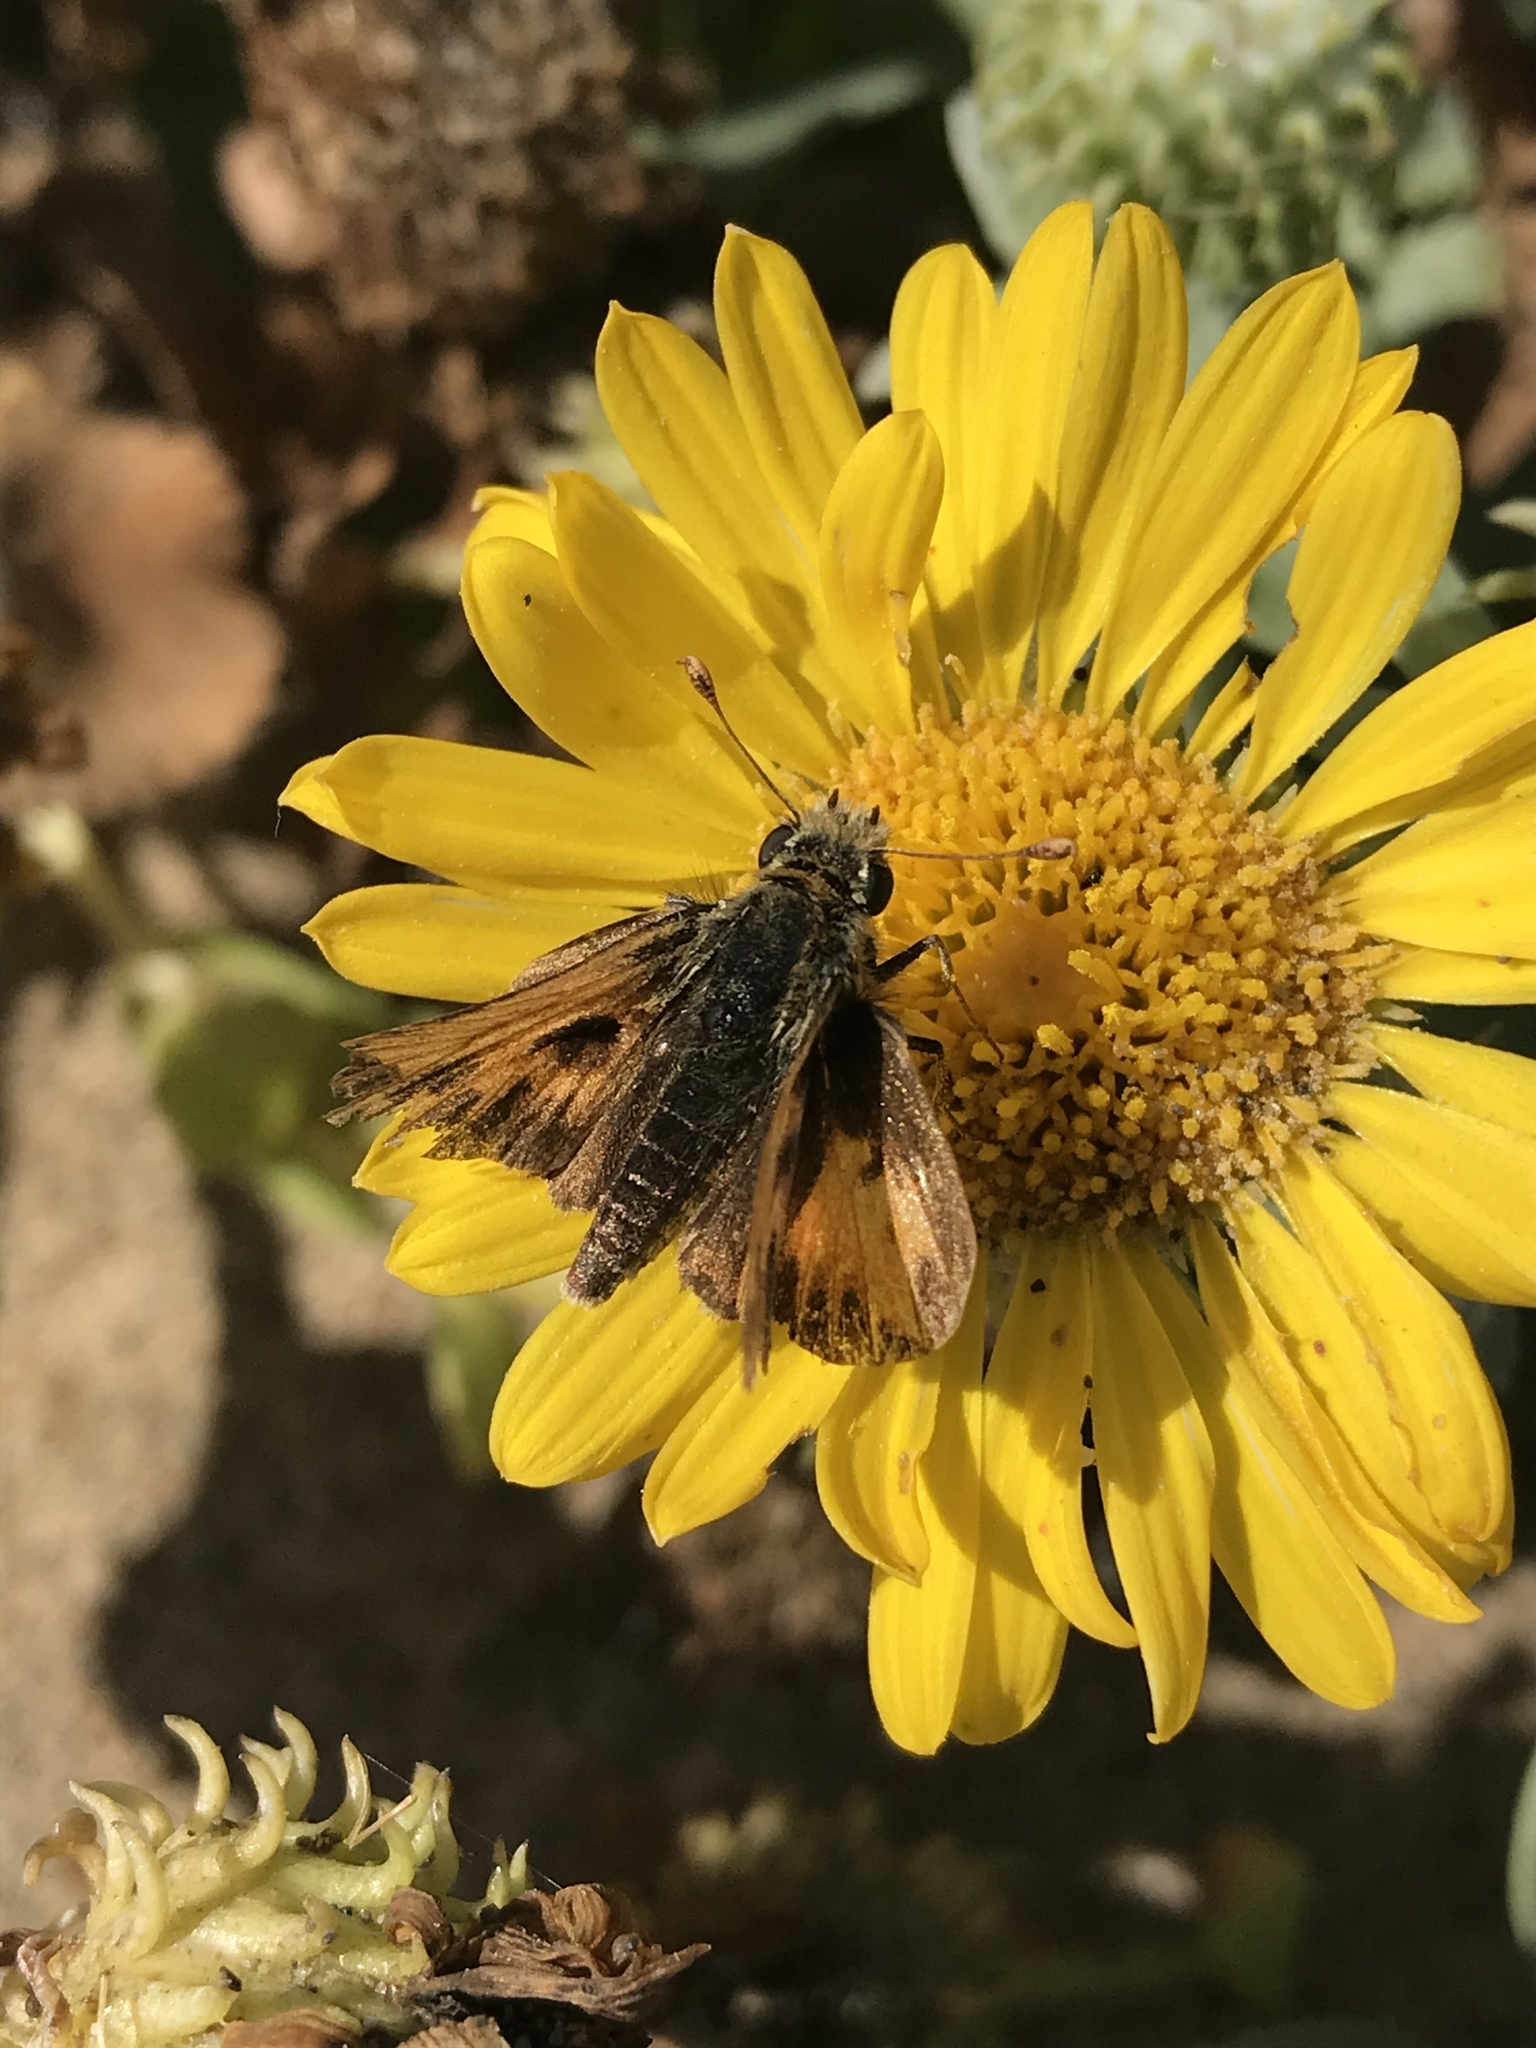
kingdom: Animalia
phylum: Arthropoda
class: Insecta
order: Lepidoptera
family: Hesperiidae
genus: Hylephila
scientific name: Hylephila phyleus
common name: Fiery skipper
